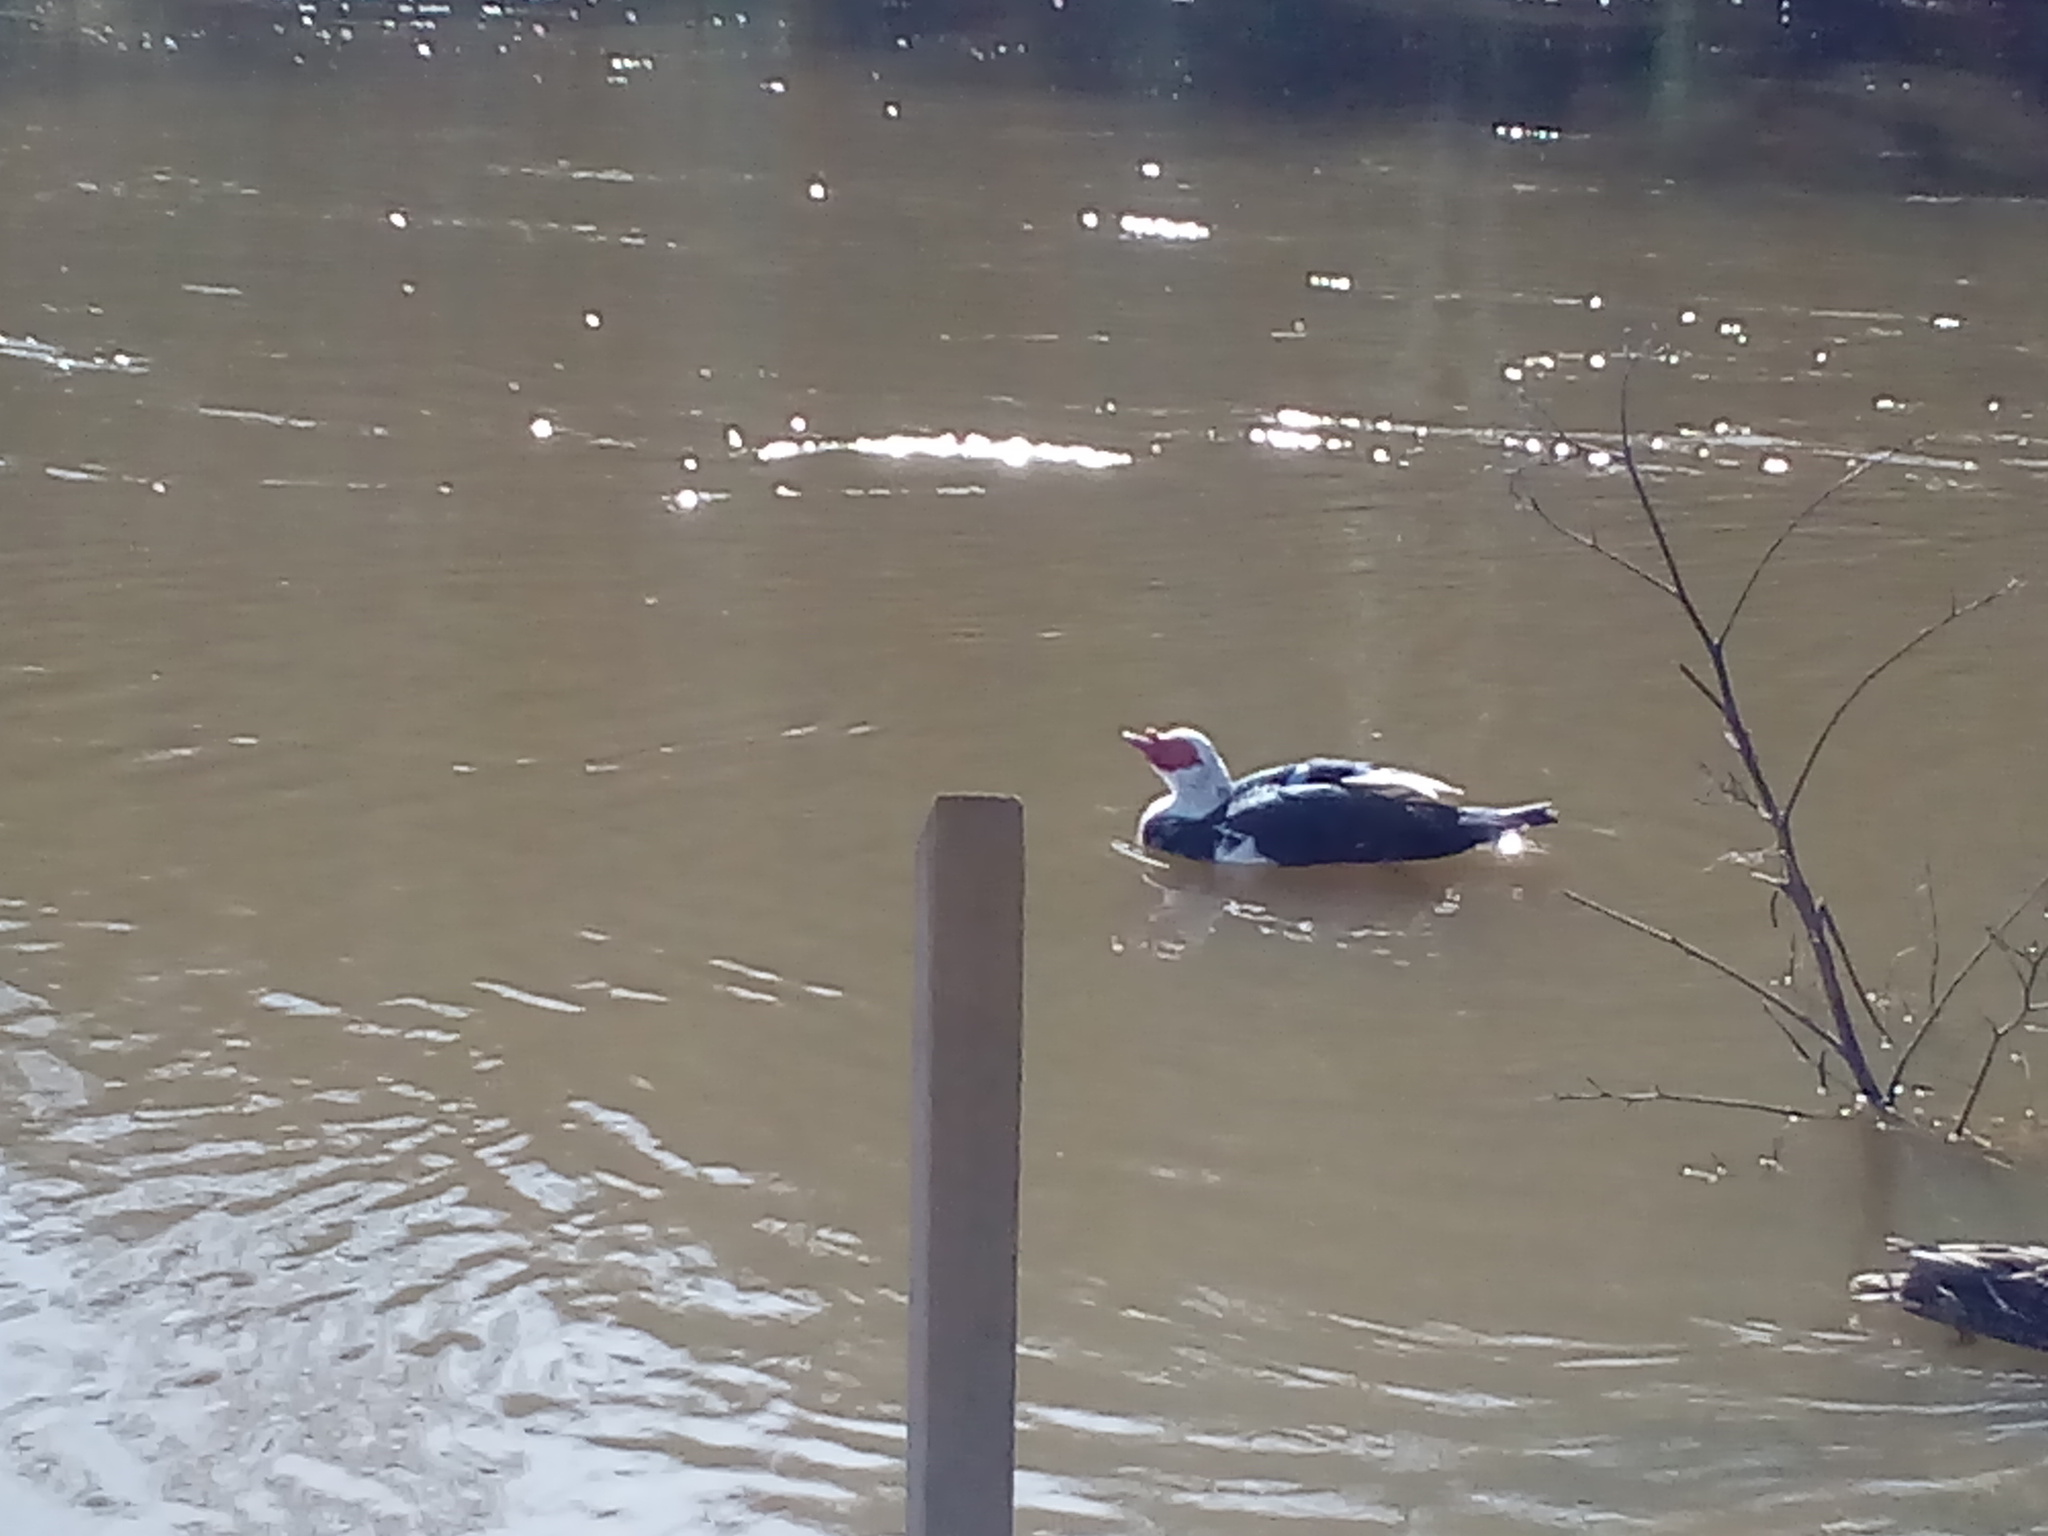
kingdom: Animalia
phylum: Chordata
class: Aves
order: Anseriformes
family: Anatidae
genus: Cairina
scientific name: Cairina moschata
